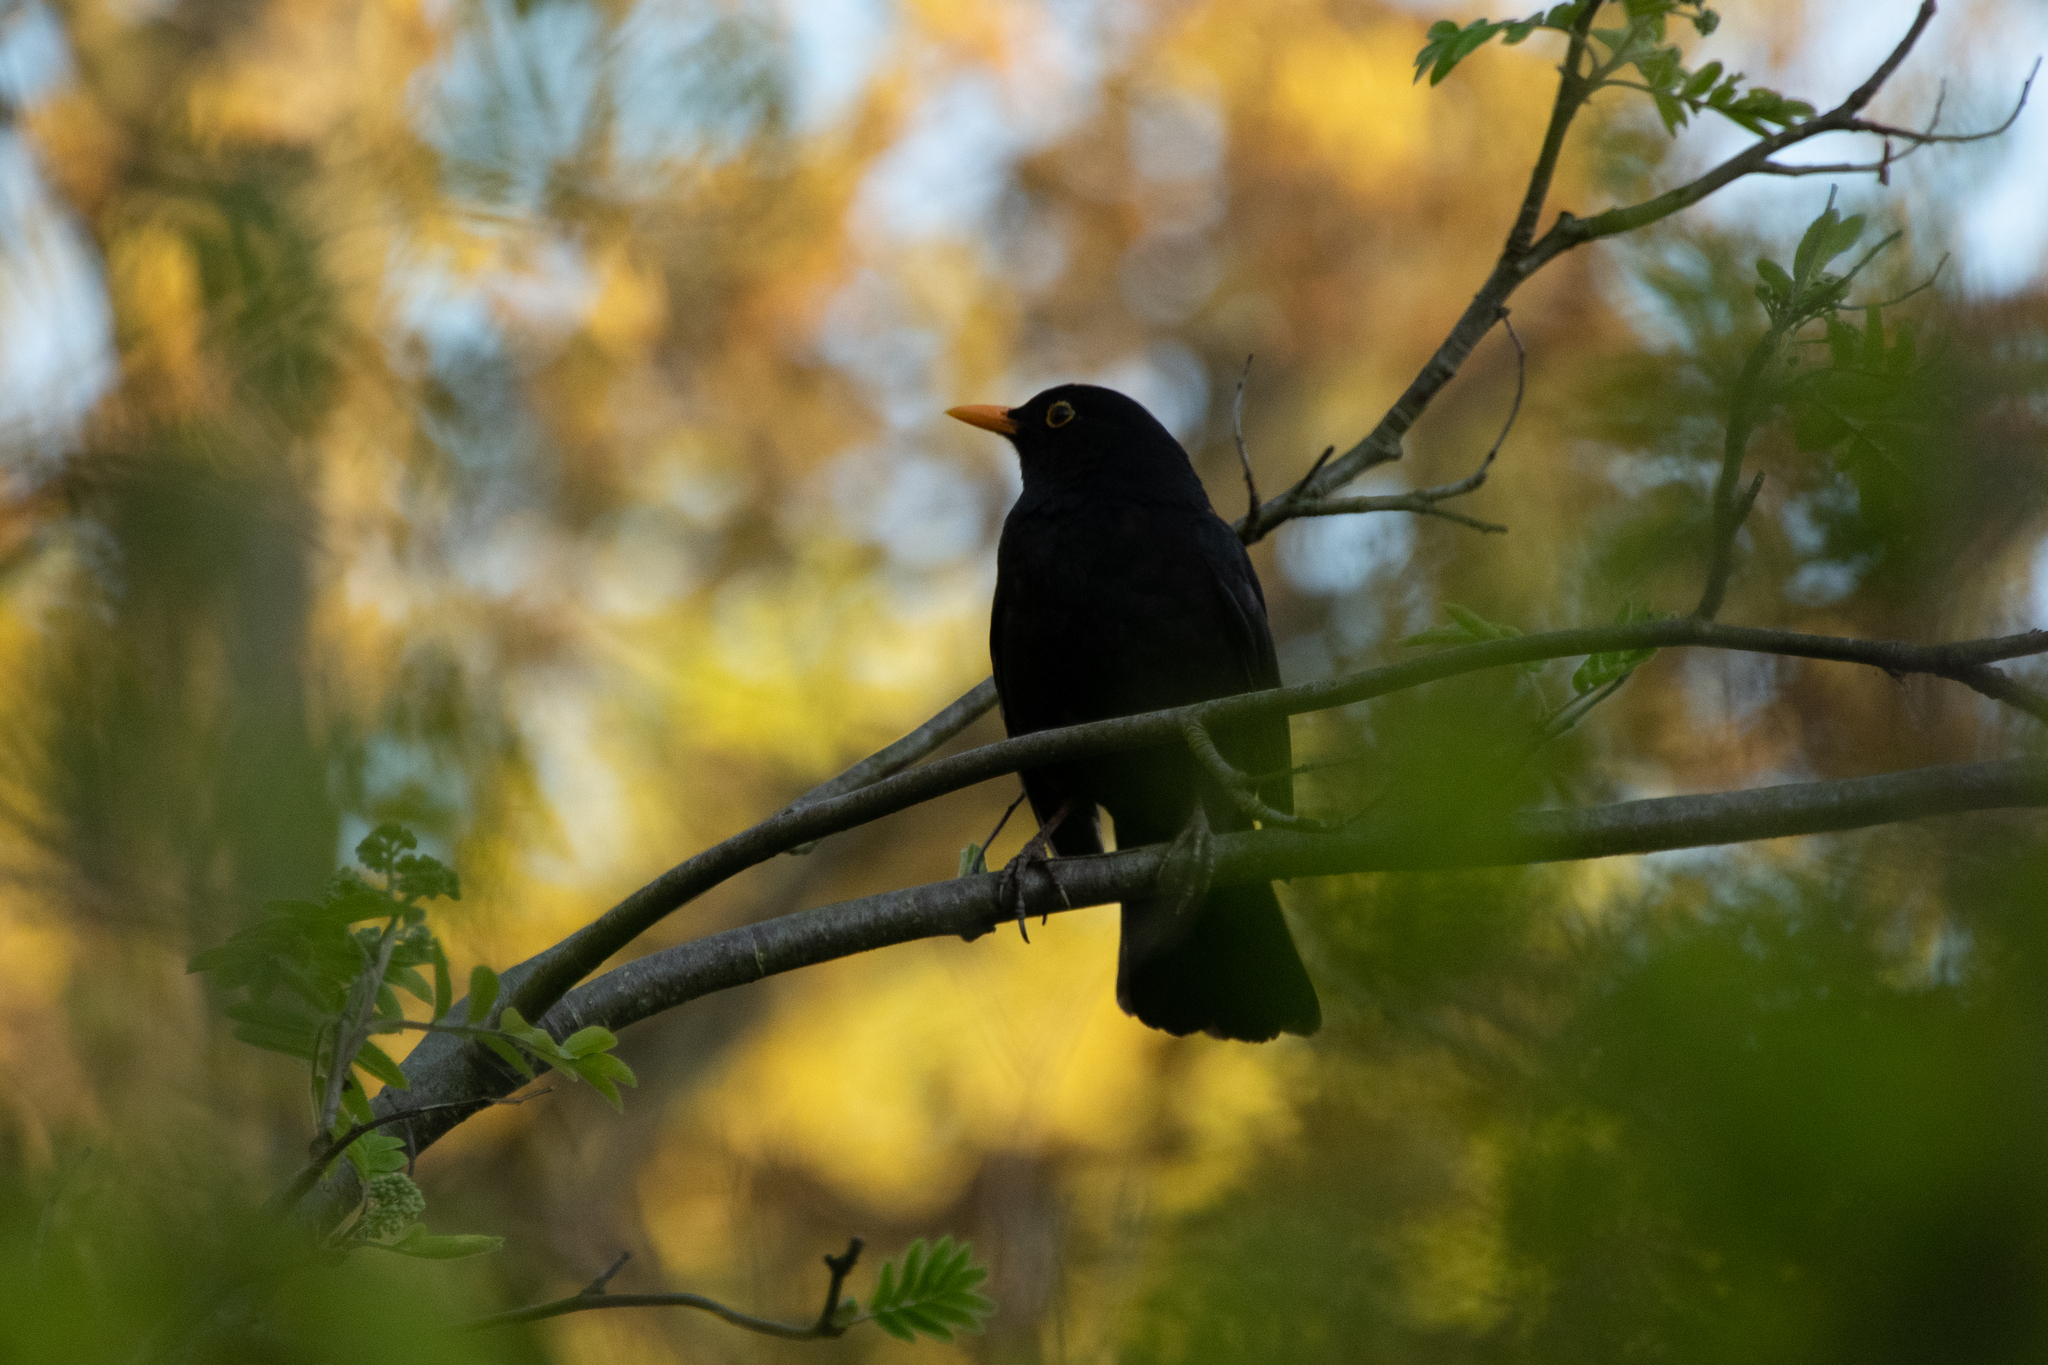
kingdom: Animalia
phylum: Chordata
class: Aves
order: Passeriformes
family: Turdidae
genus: Turdus
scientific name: Turdus merula
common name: Common blackbird
